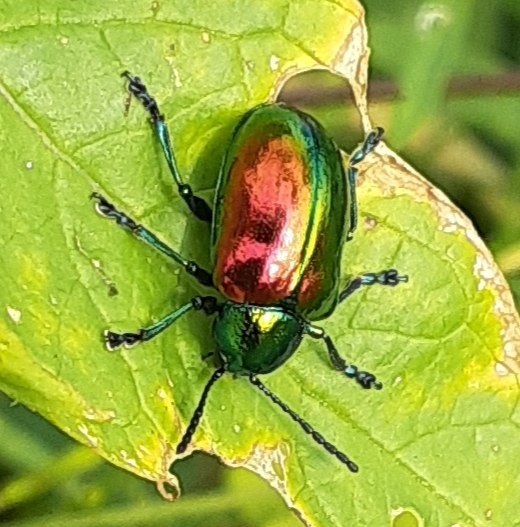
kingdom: Animalia
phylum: Arthropoda
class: Insecta
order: Coleoptera
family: Chrysomelidae
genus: Chrysochus
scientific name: Chrysochus auratus
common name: Dogbane leaf beetle
